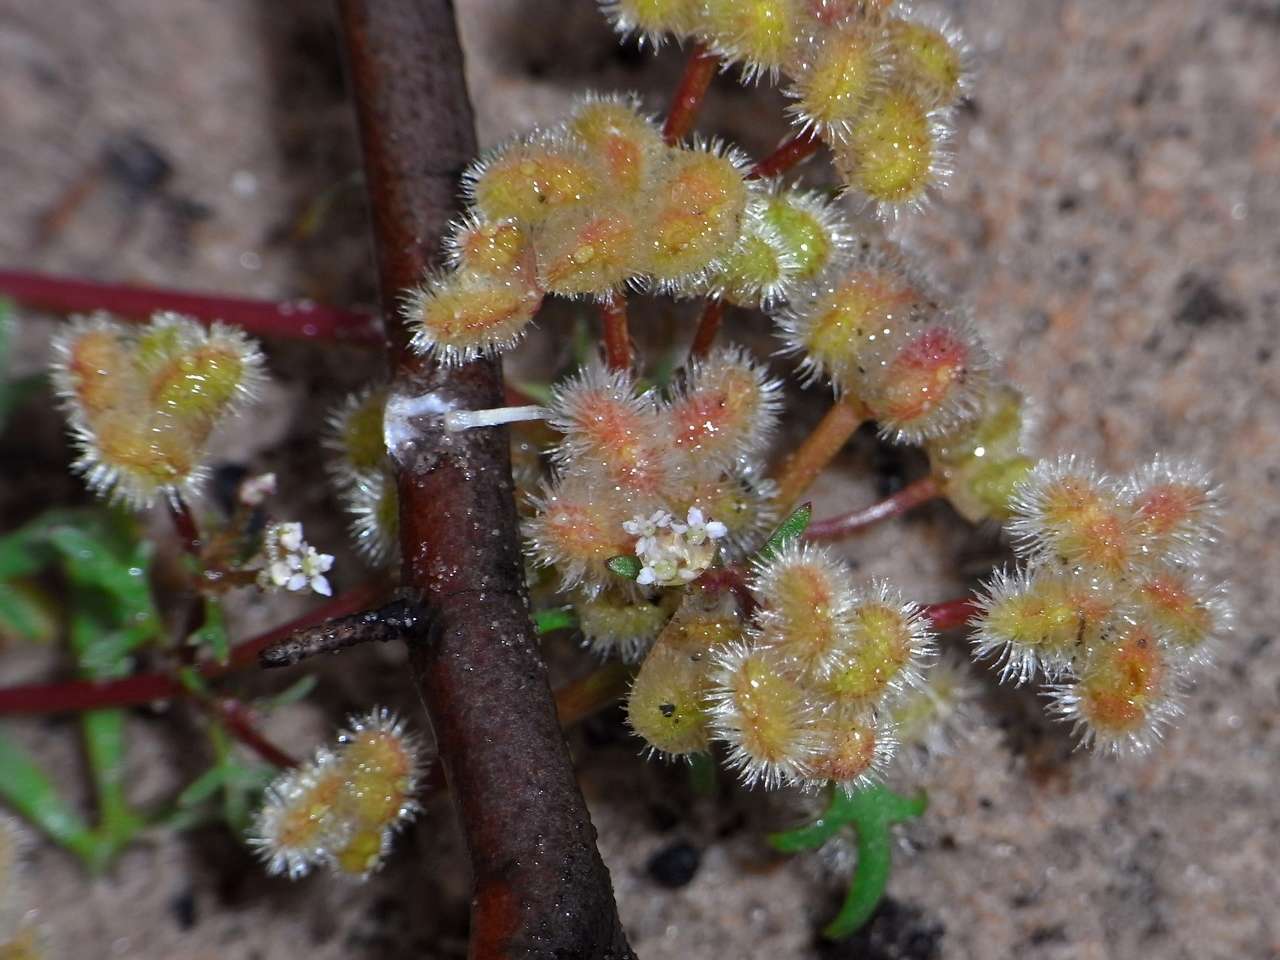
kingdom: Plantae
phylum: Tracheophyta
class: Magnoliopsida
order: Apiales
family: Araliaceae
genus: Trachymene
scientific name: Trachymene cyanopetala
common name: Purple trachymene
